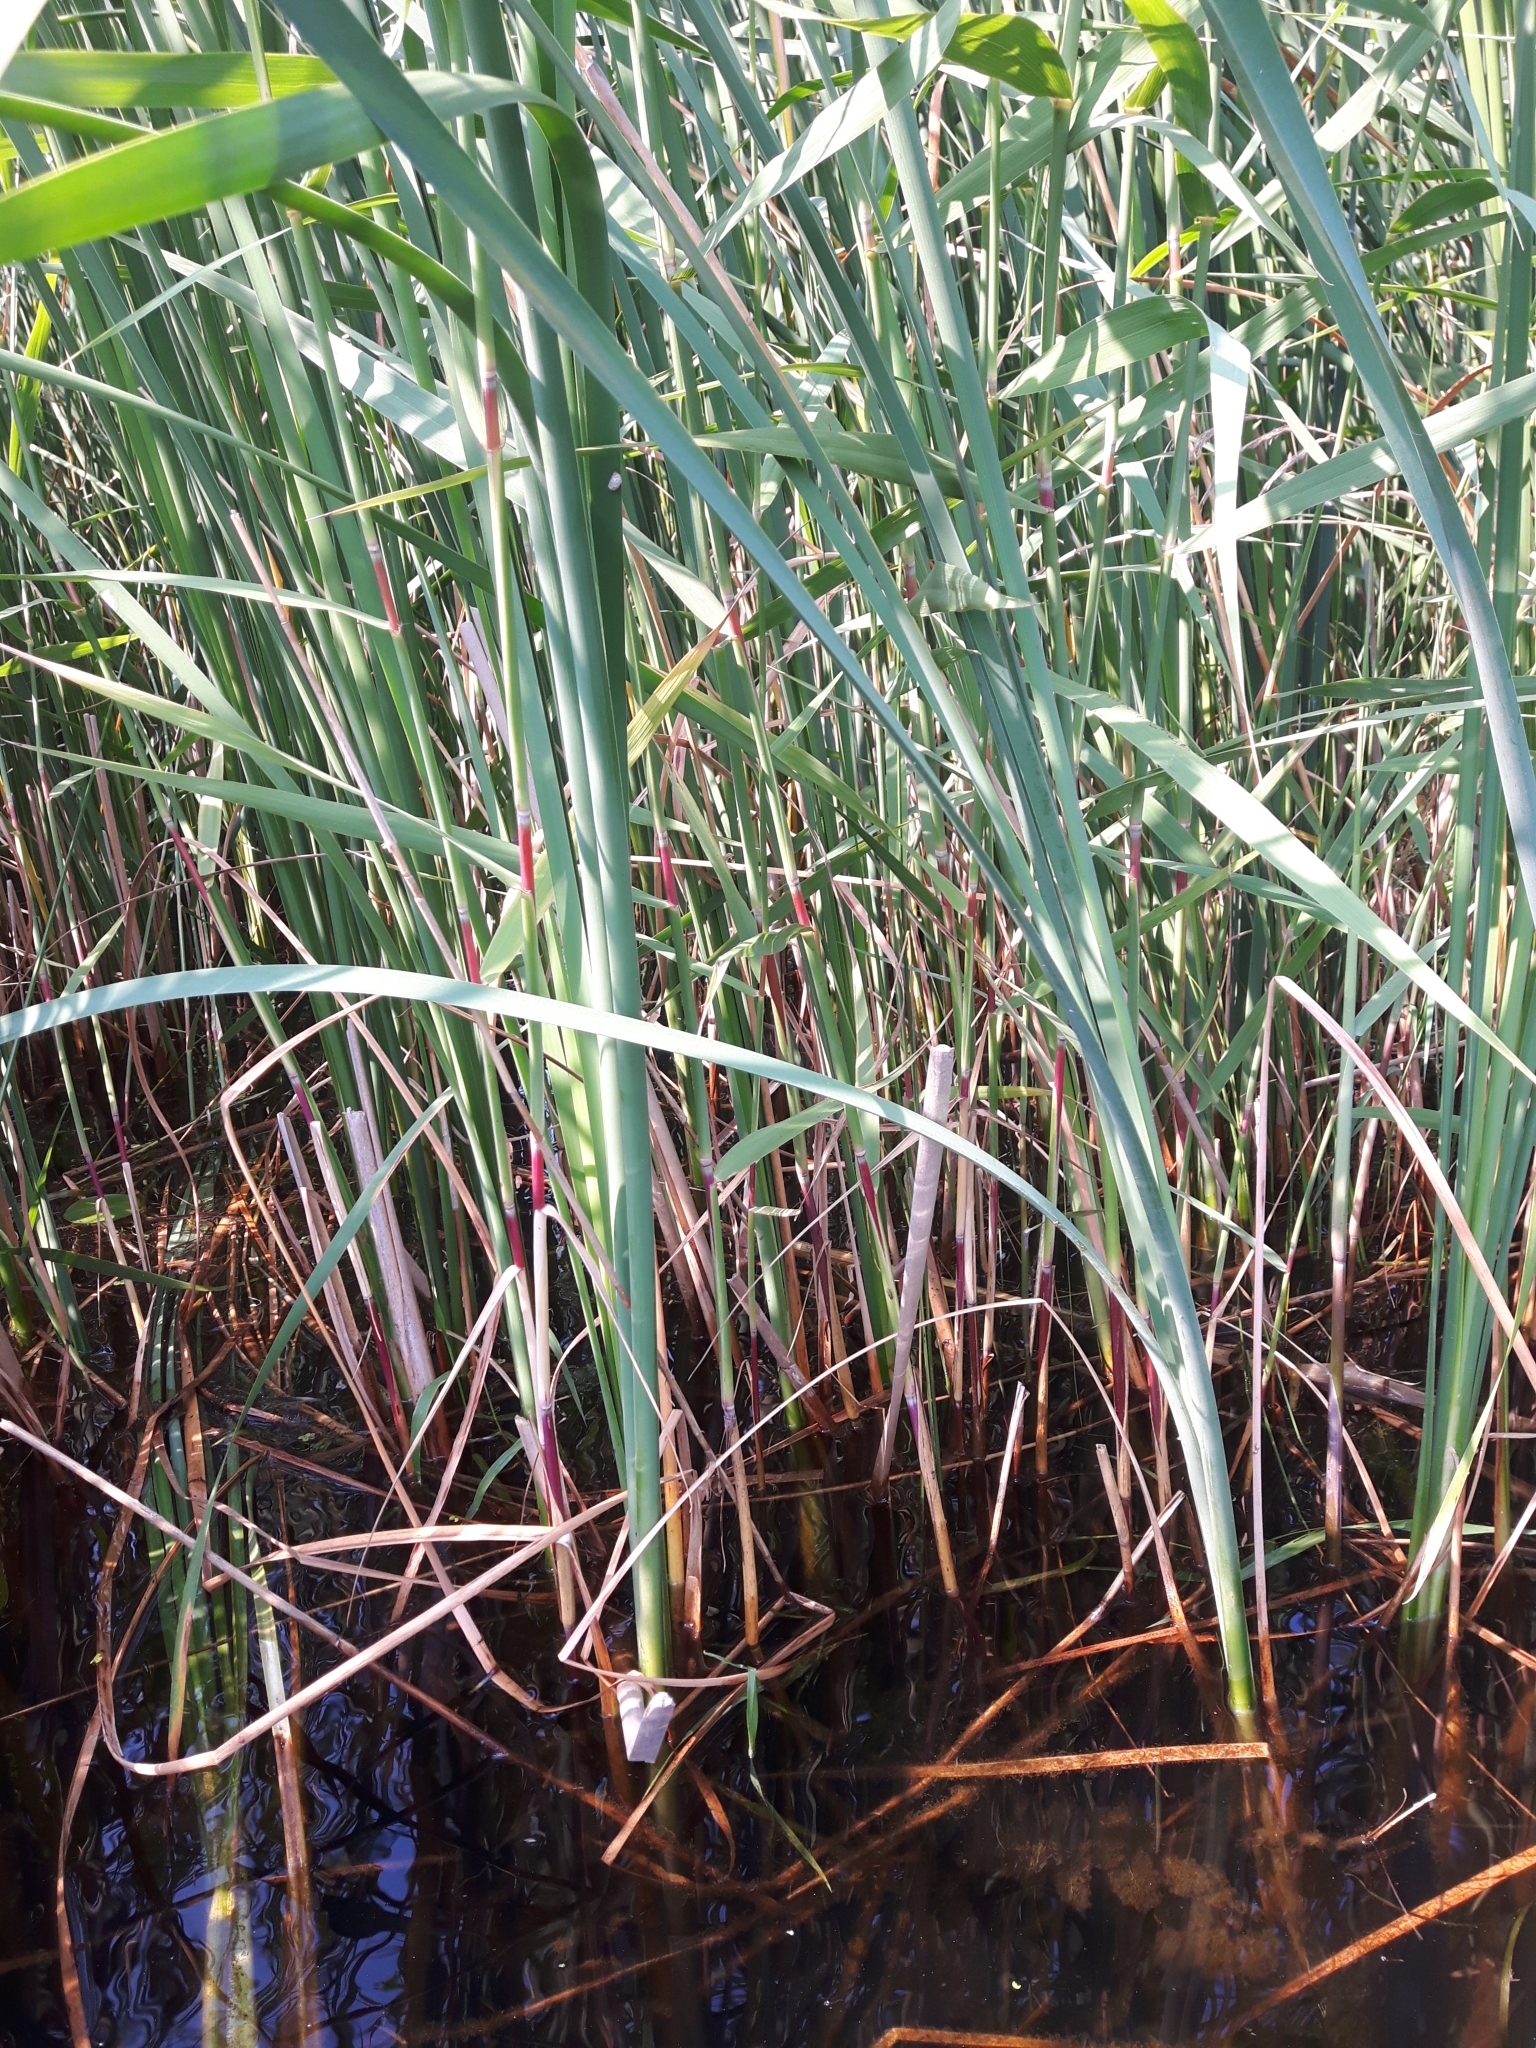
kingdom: Plantae
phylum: Tracheophyta
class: Liliopsida
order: Poales
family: Poaceae
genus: Phragmites
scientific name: Phragmites australis
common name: Common reed
